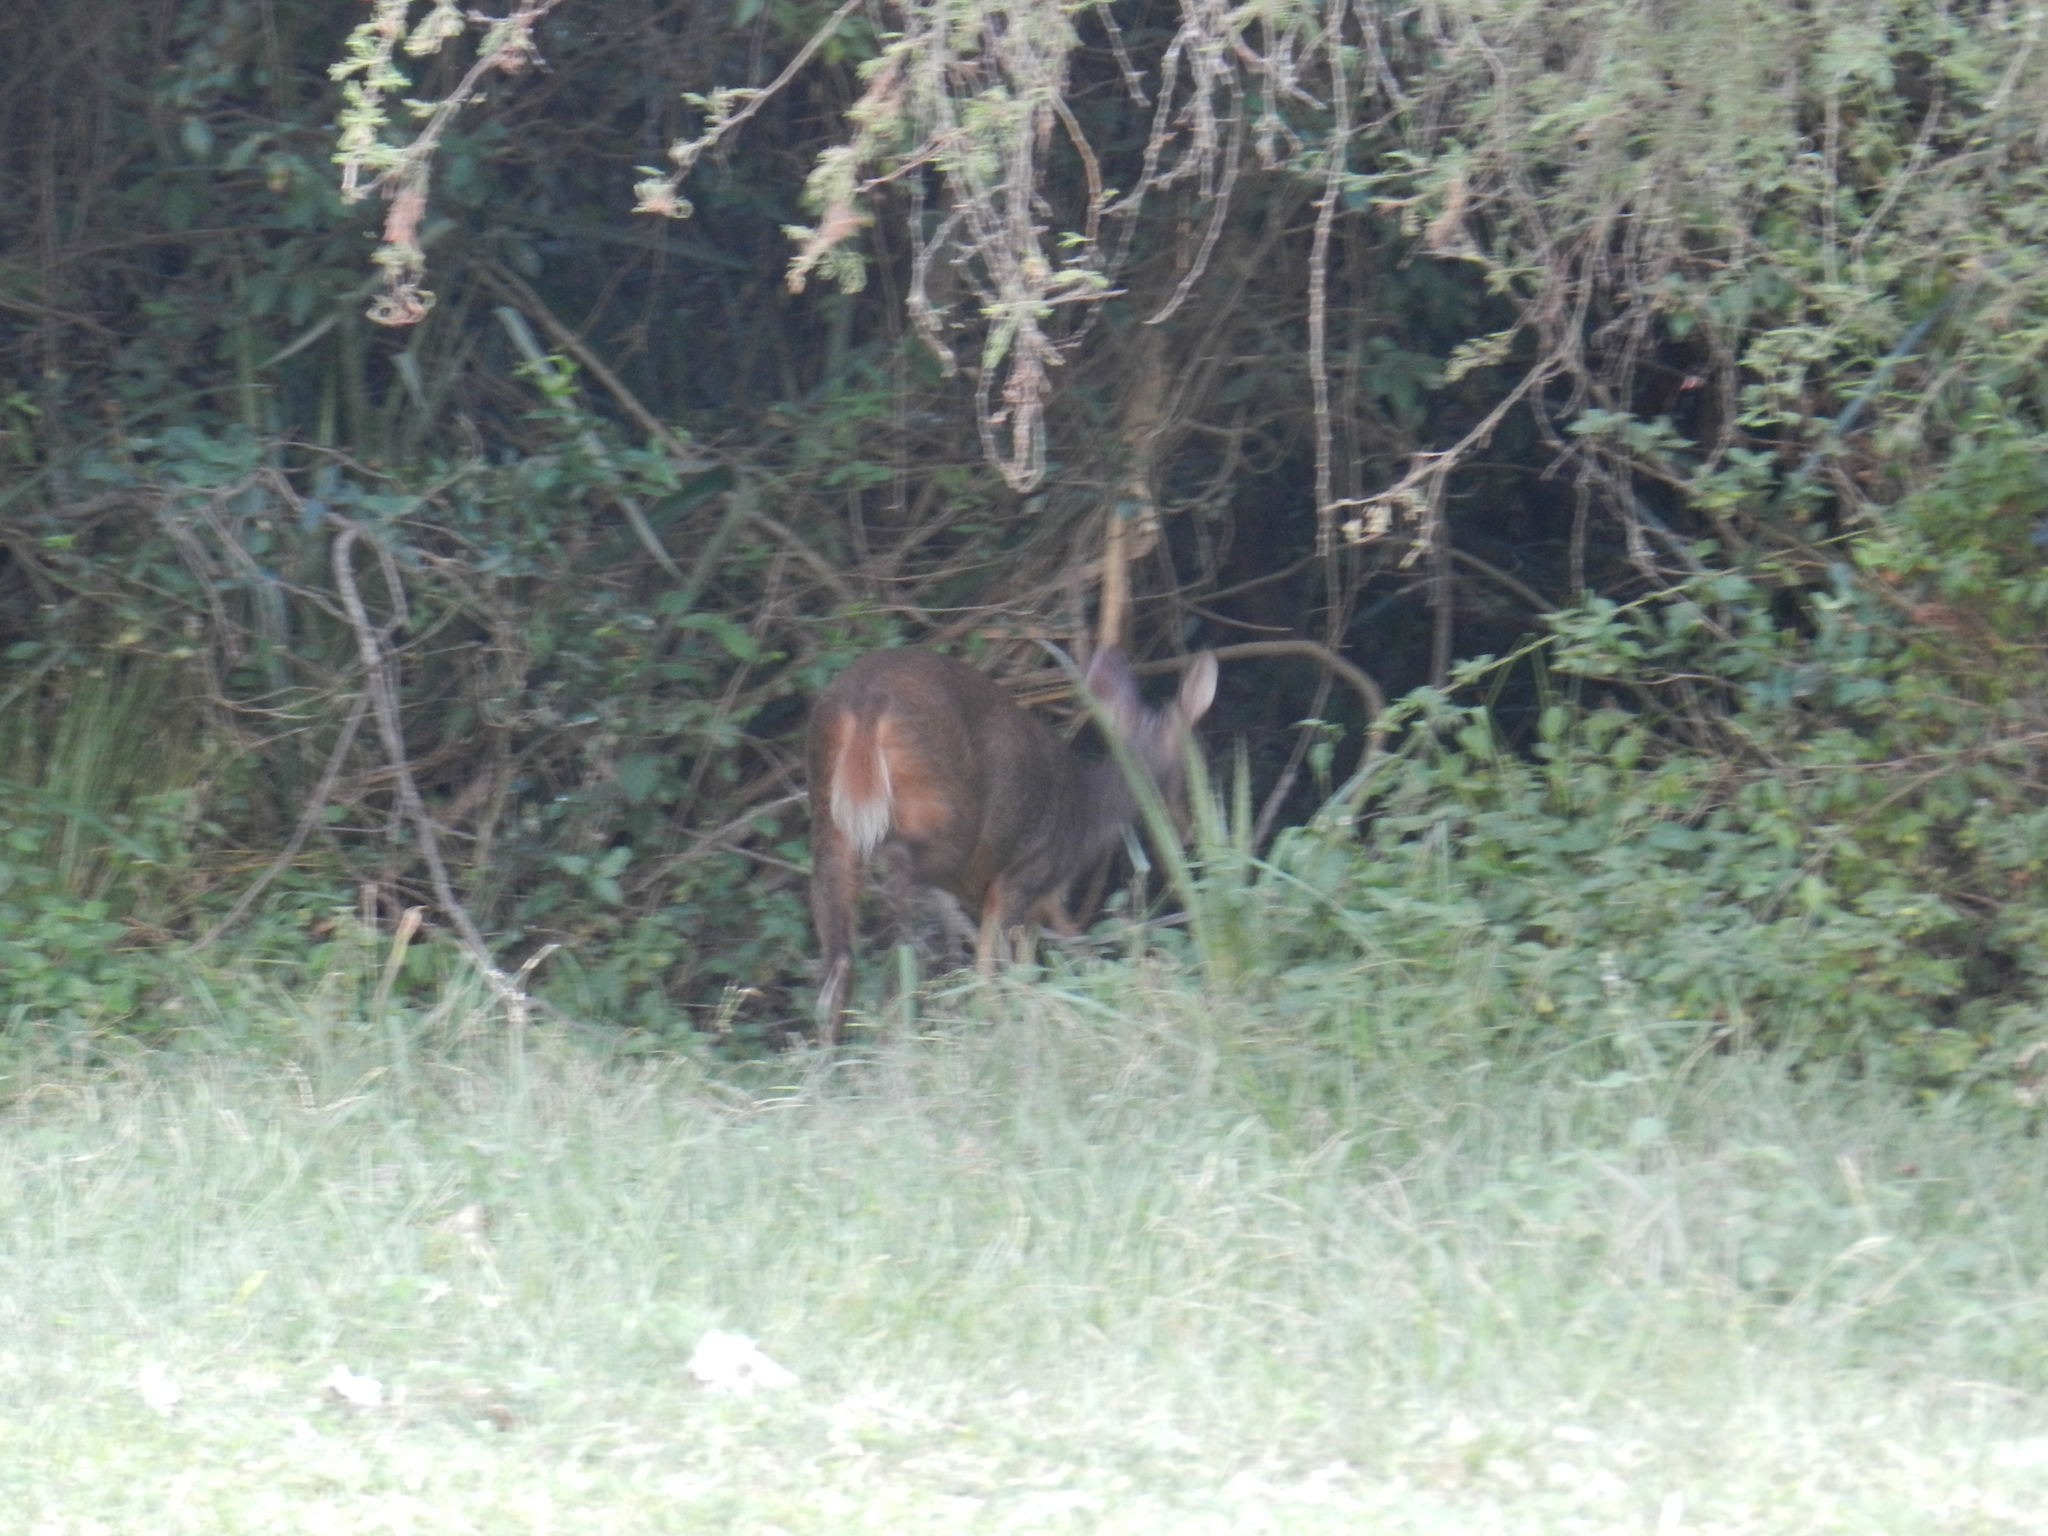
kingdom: Animalia
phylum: Chordata
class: Mammalia
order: Artiodactyla
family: Cervidae
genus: Mazama
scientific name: Mazama gouazoubira
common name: Gray brocket
